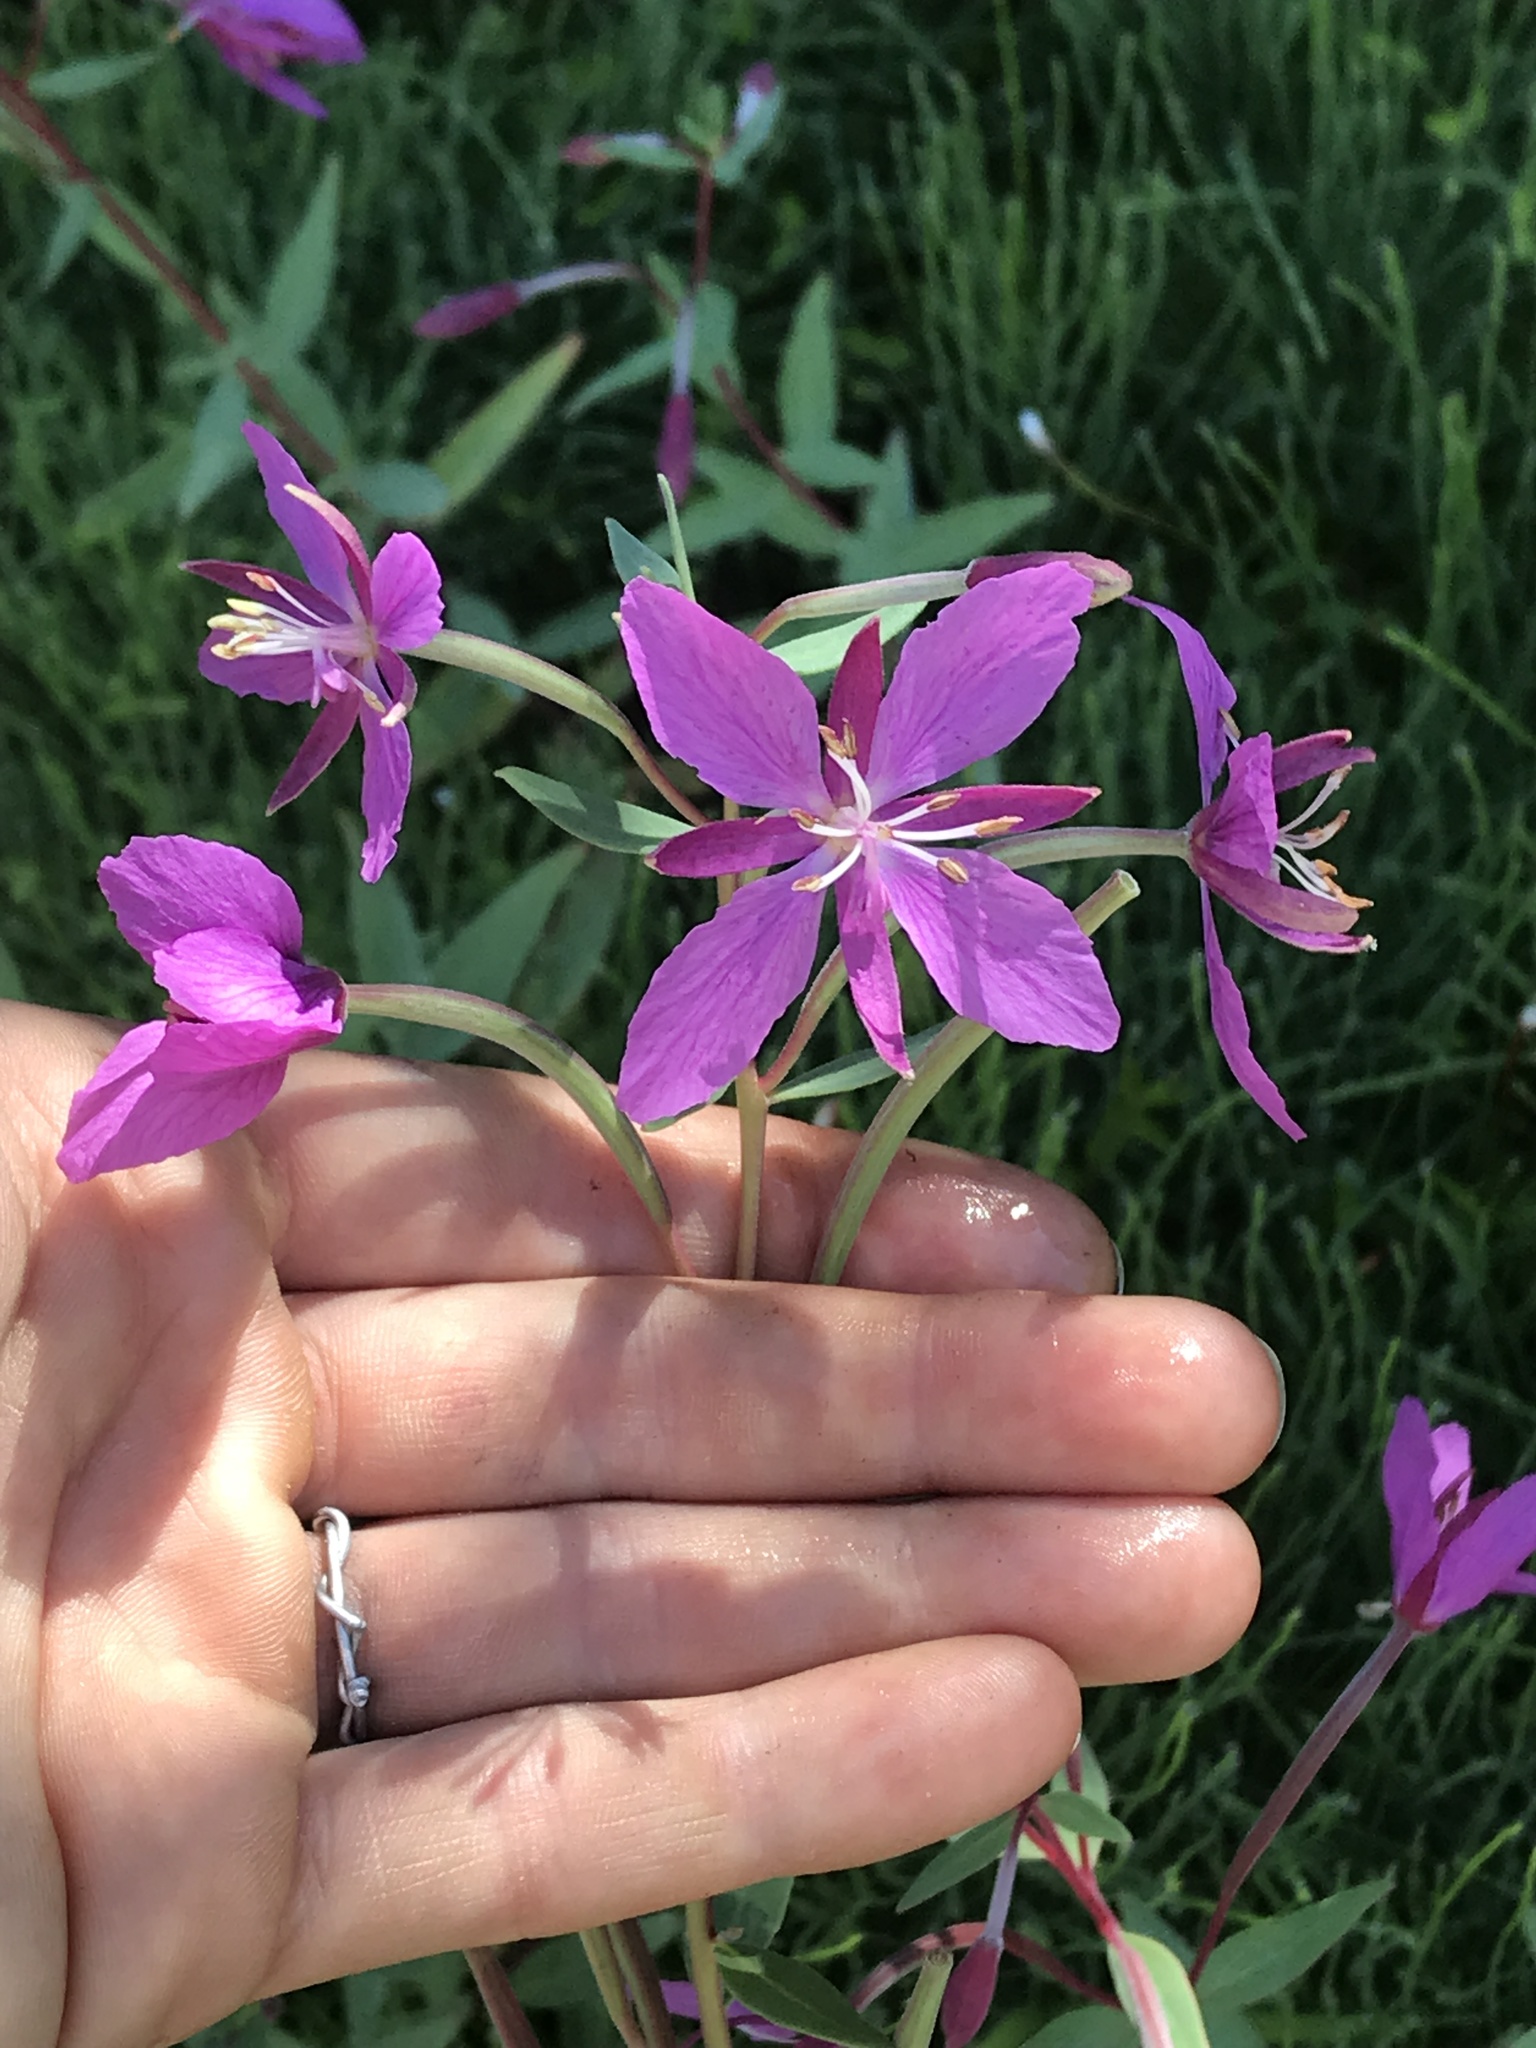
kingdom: Plantae
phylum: Tracheophyta
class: Magnoliopsida
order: Myrtales
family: Onagraceae
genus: Chamaenerion
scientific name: Chamaenerion latifolium
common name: Dwarf fireweed
